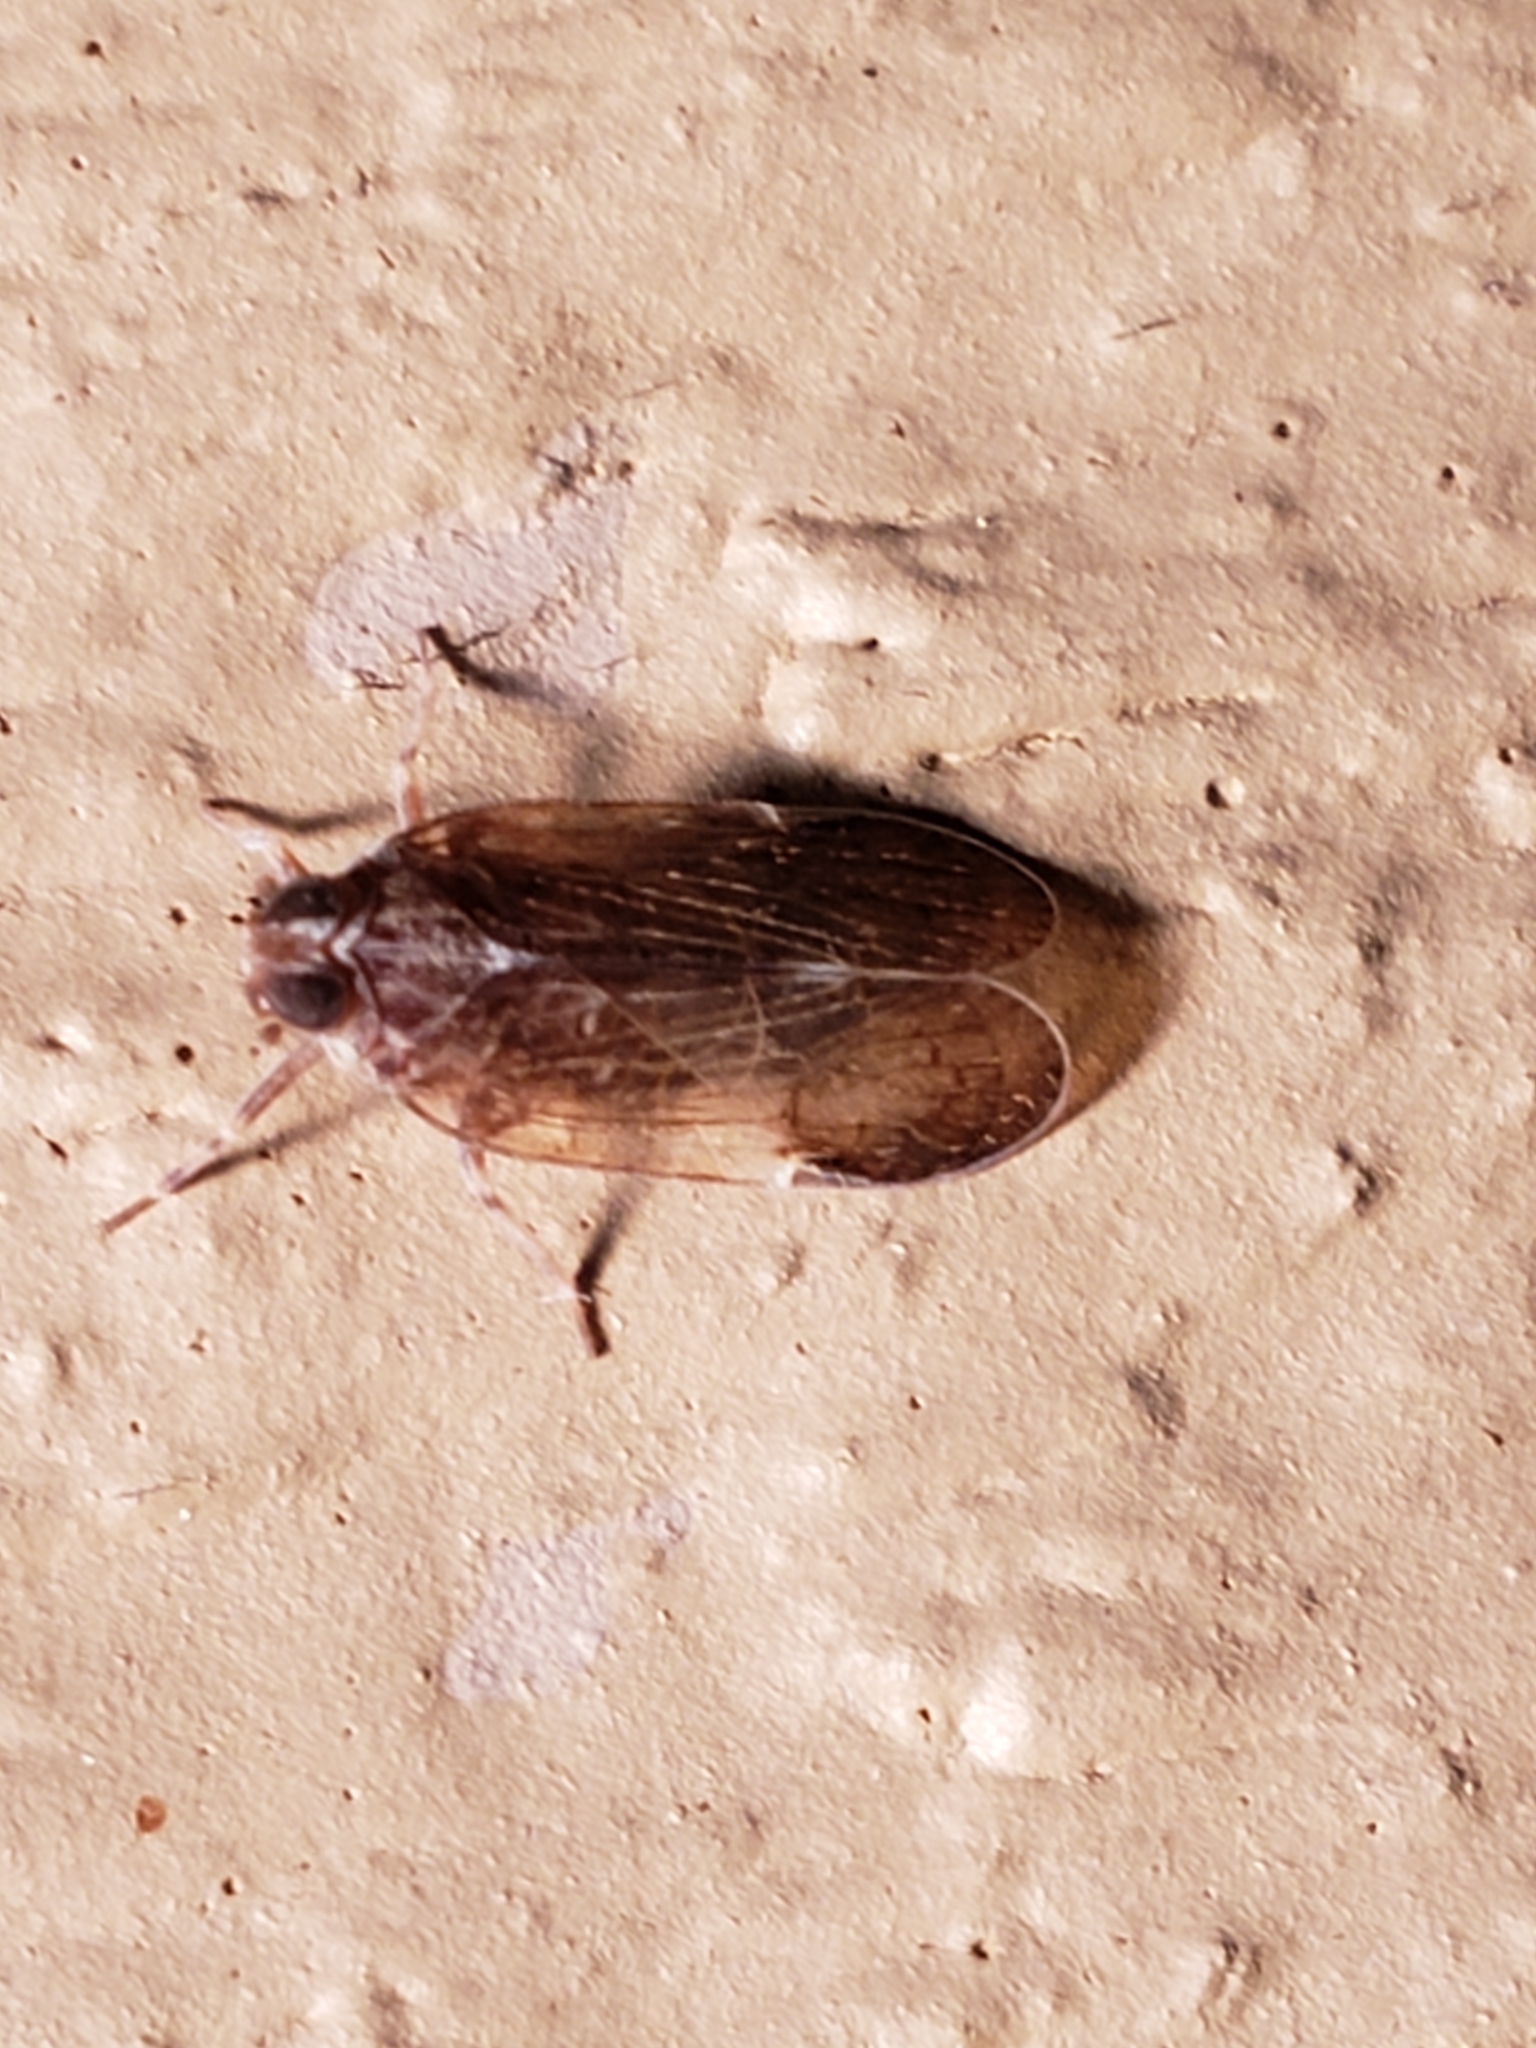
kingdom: Animalia
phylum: Arthropoda
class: Insecta
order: Hemiptera
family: Cixiidae
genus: Melanoliarus
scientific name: Melanoliarus placitus
